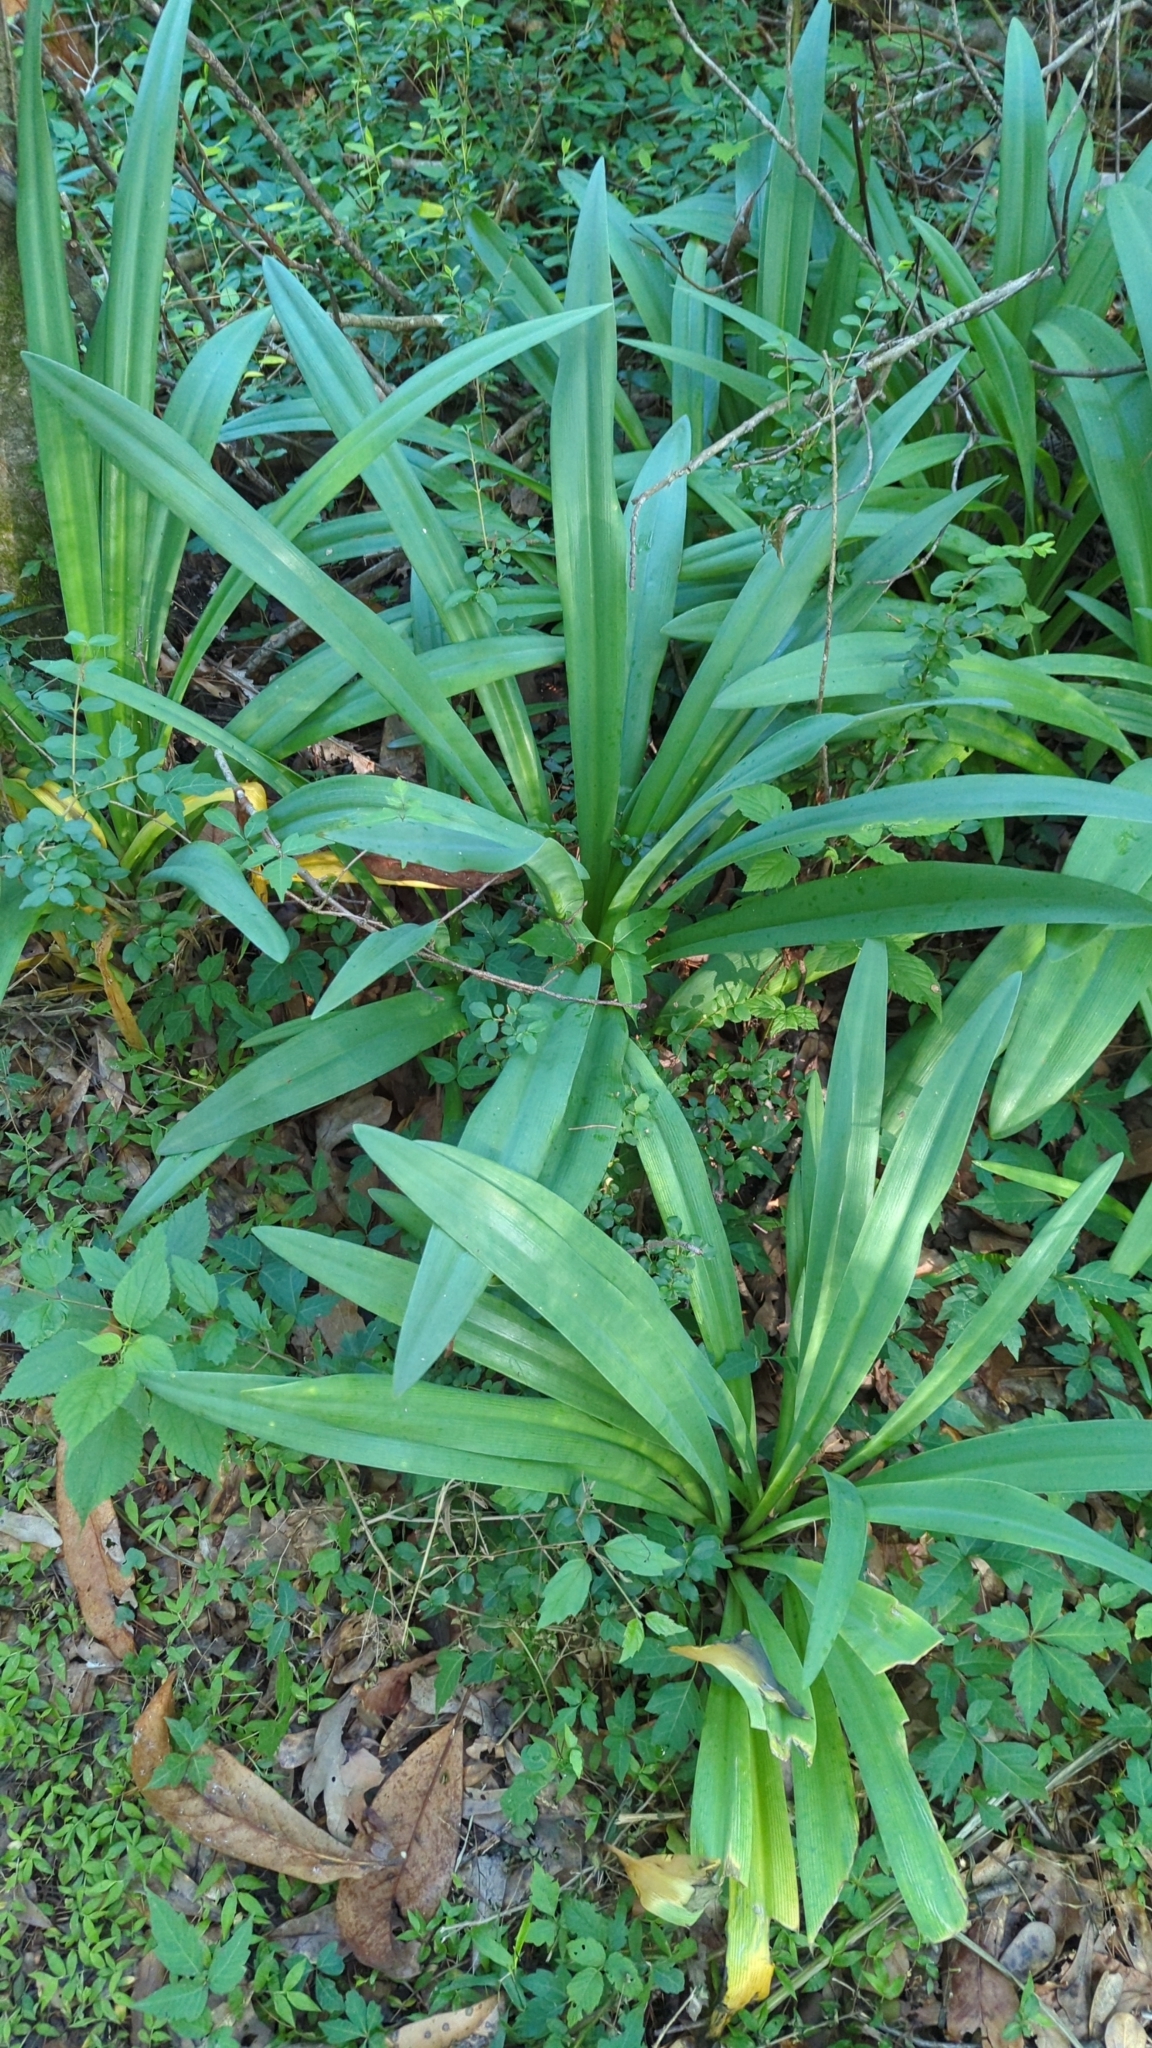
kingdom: Plantae
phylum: Tracheophyta
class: Liliopsida
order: Asparagales
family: Amaryllidaceae
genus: Hymenocallis
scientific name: Hymenocallis occidentalis
